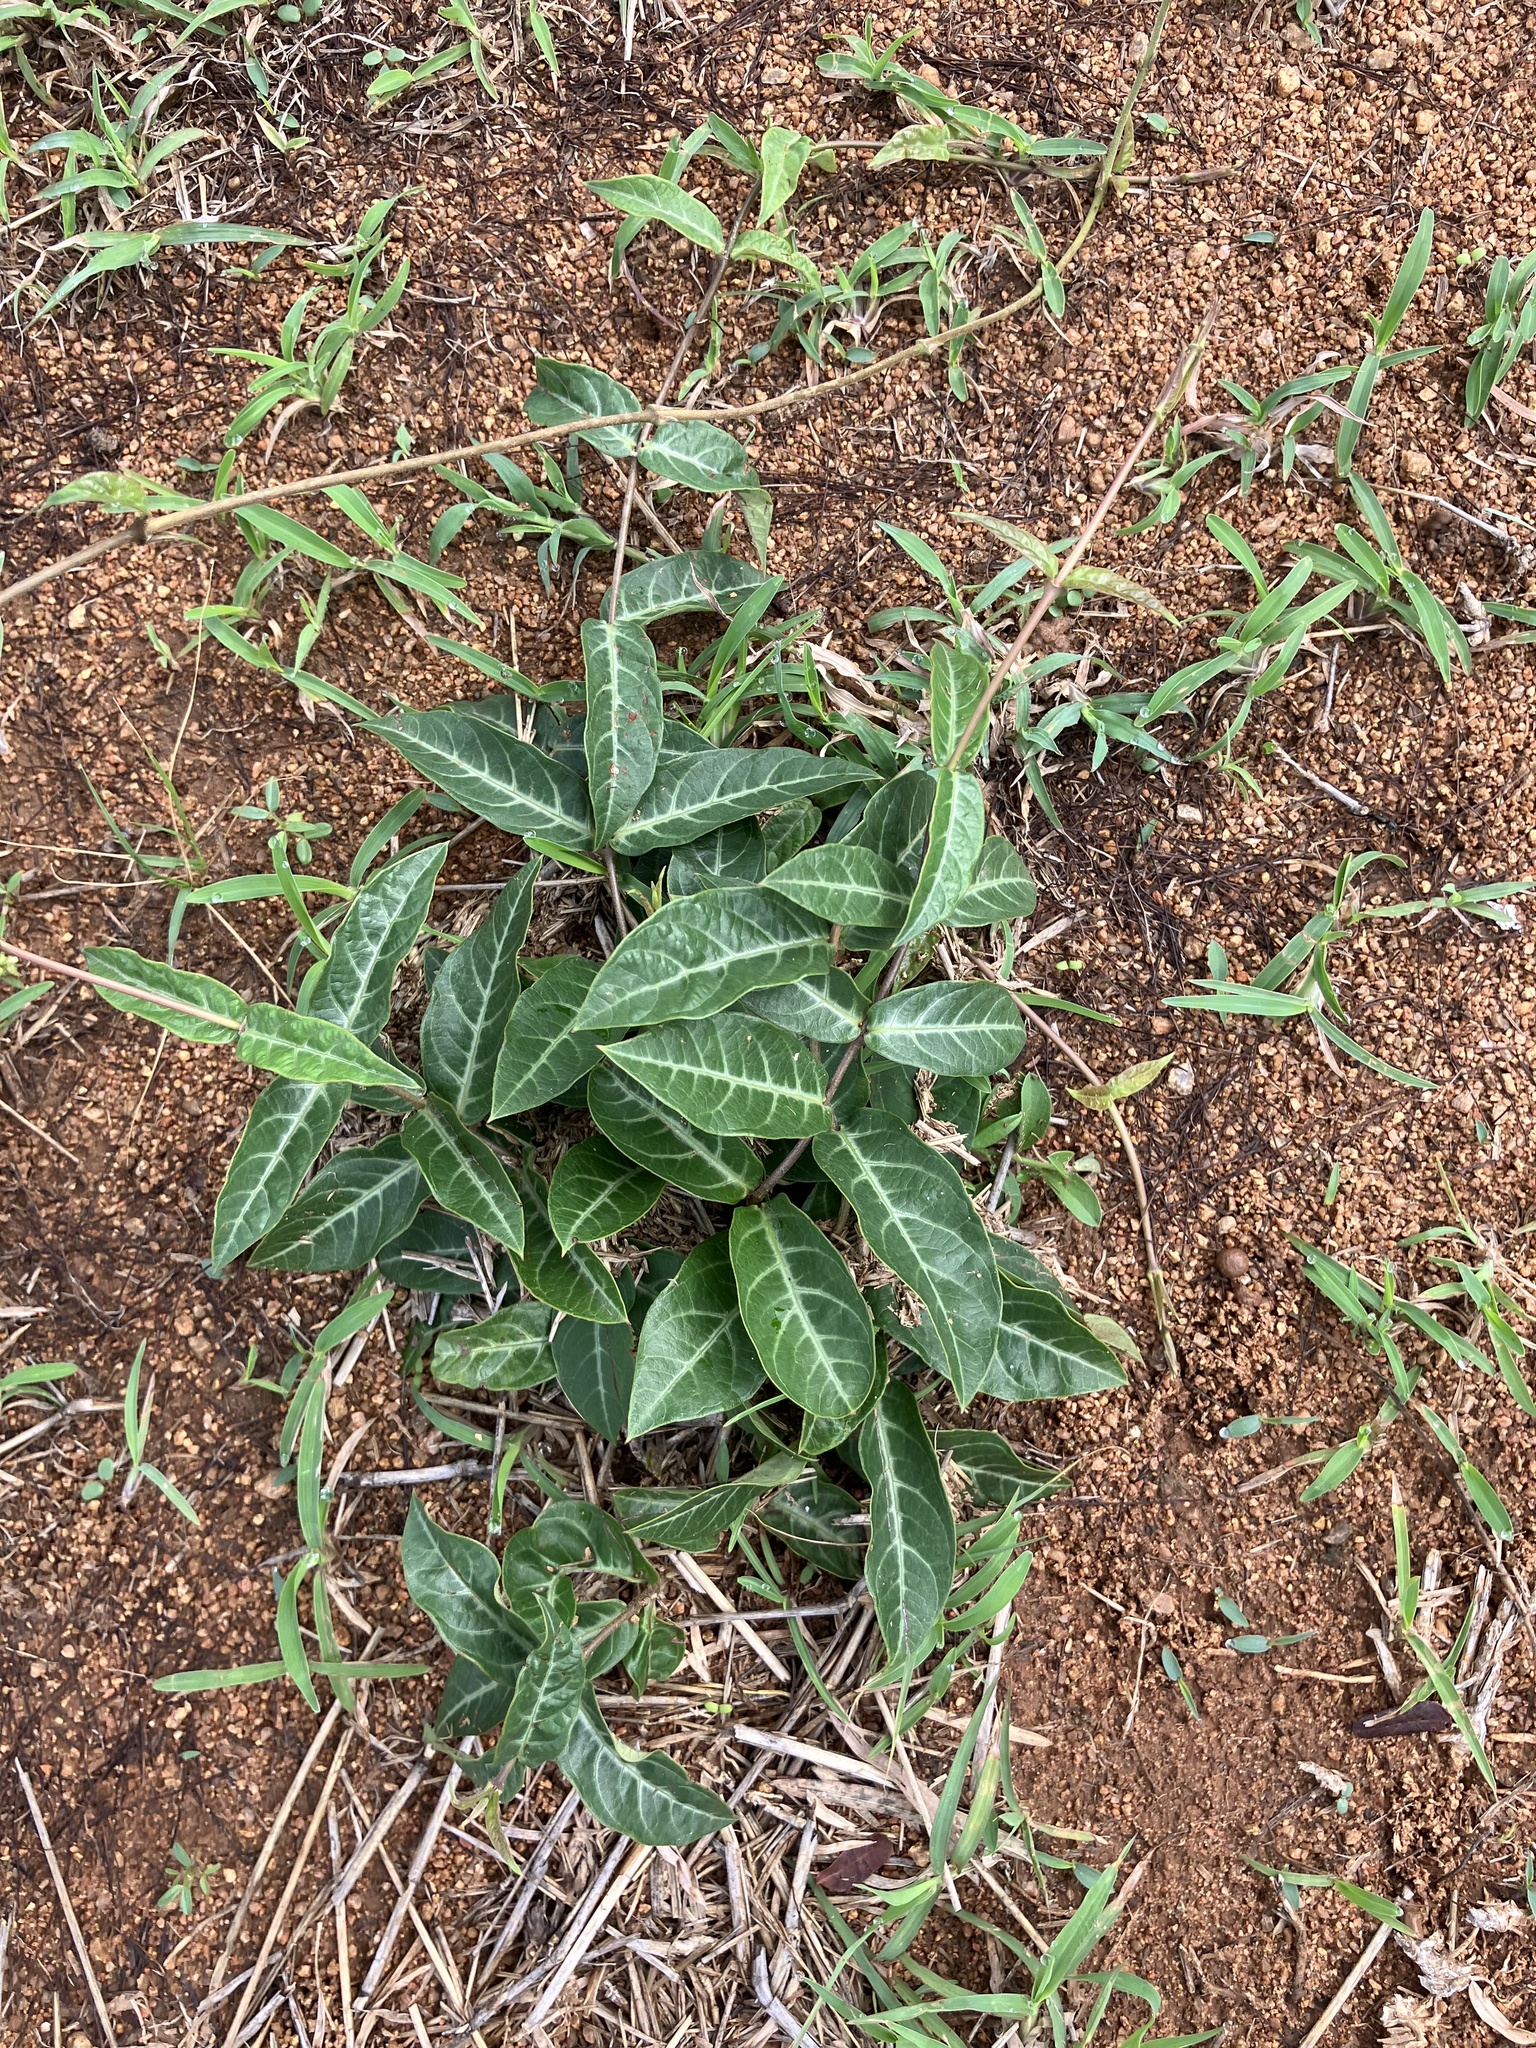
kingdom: Plantae
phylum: Tracheophyta
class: Magnoliopsida
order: Gentianales
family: Apocynaceae
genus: Hemidesmus
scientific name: Hemidesmus indicus
